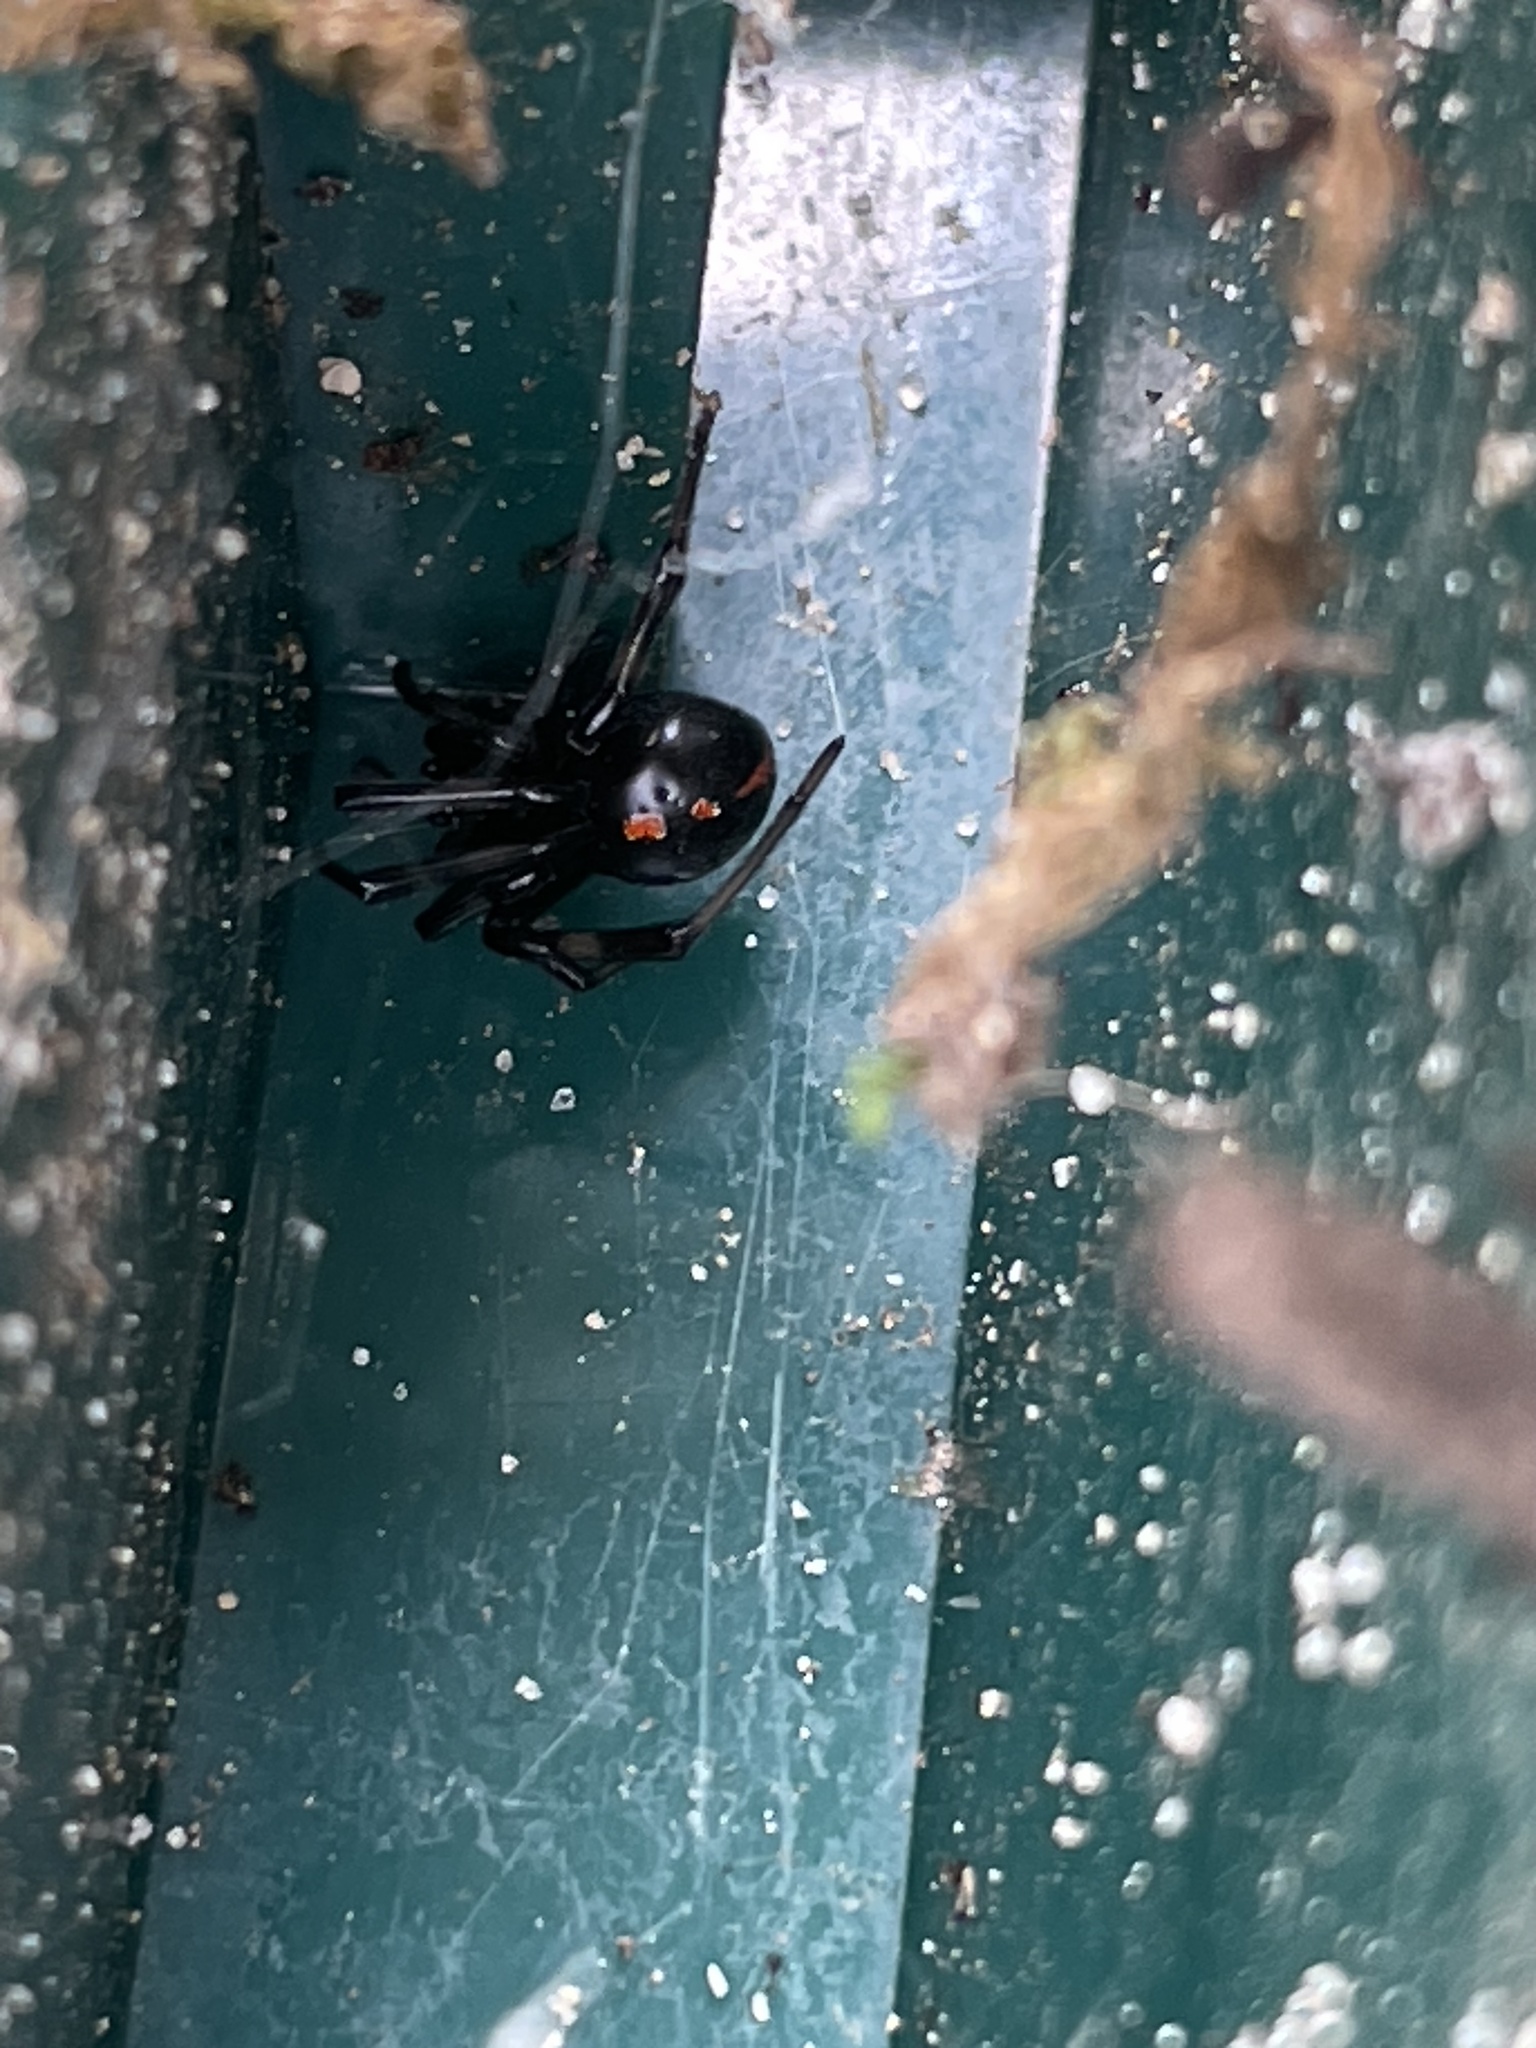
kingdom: Animalia
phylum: Arthropoda
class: Arachnida
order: Araneae
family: Theridiidae
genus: Latrodectus
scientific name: Latrodectus mactans
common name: Cobweb spiders
